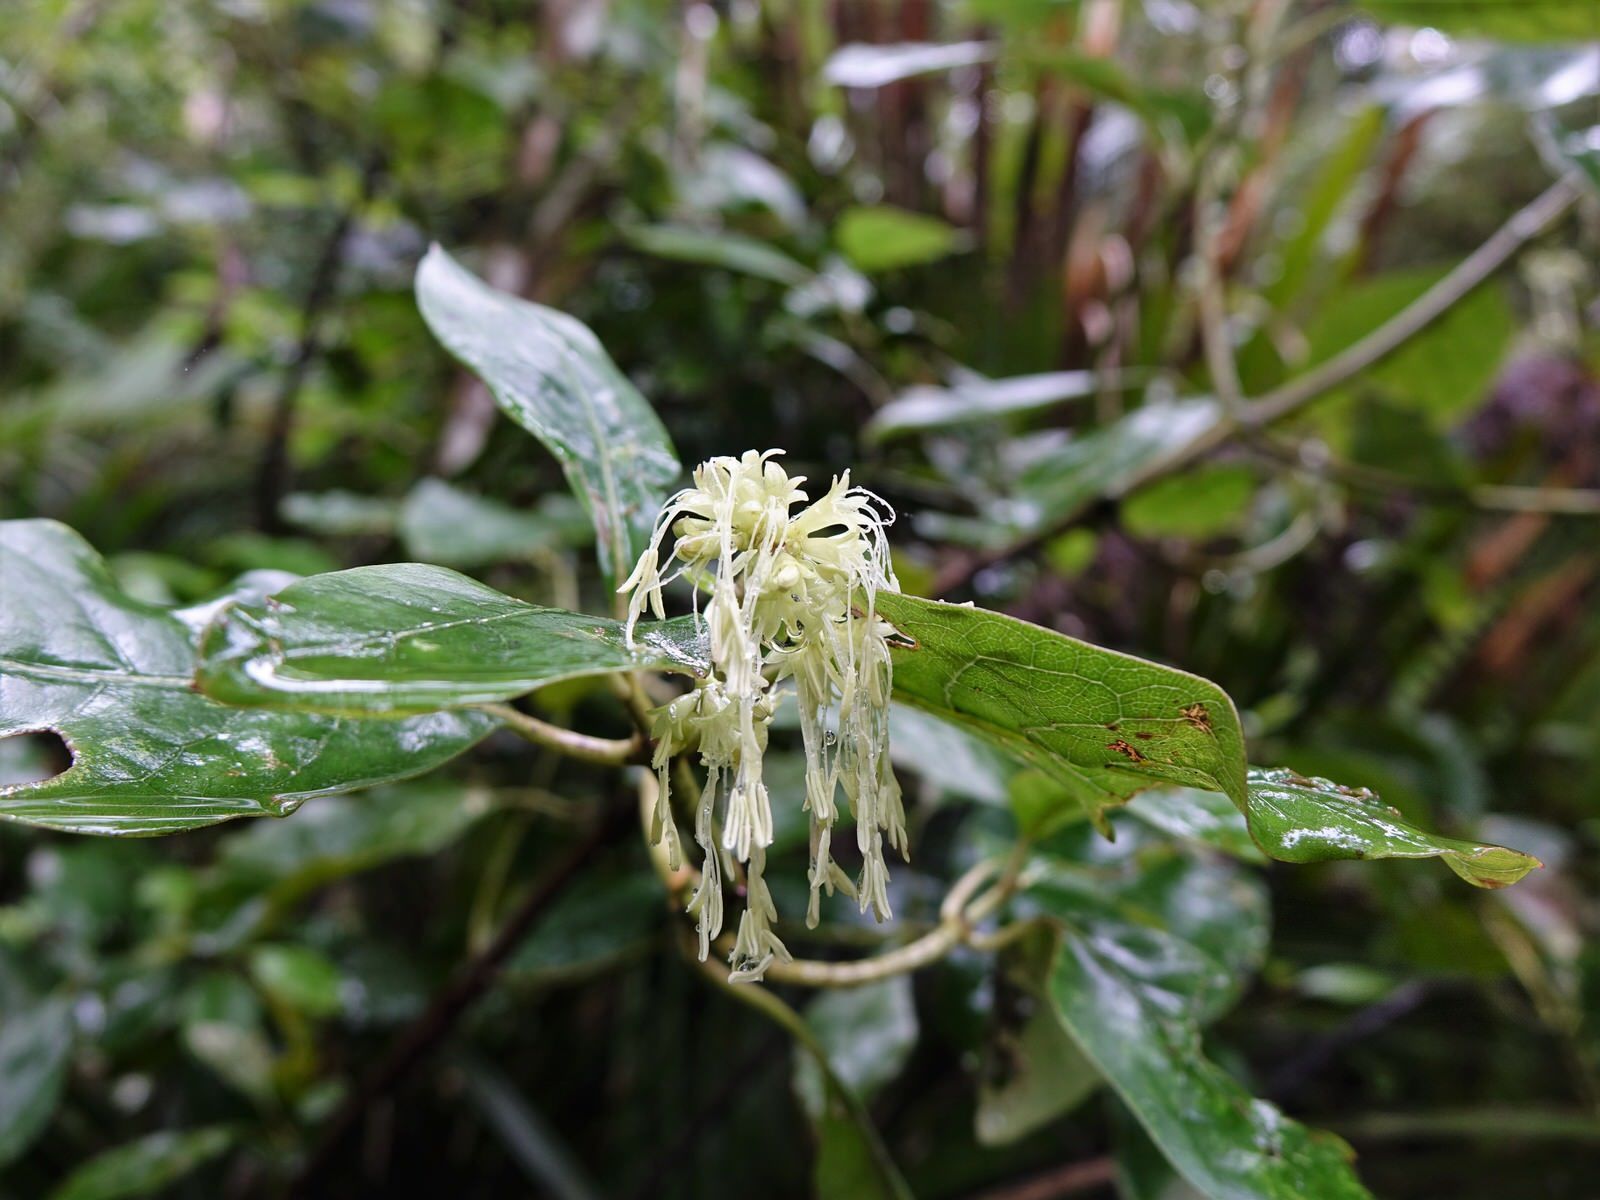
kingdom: Plantae
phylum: Tracheophyta
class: Magnoliopsida
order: Gentianales
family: Rubiaceae
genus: Coprosma
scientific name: Coprosma autumnalis
